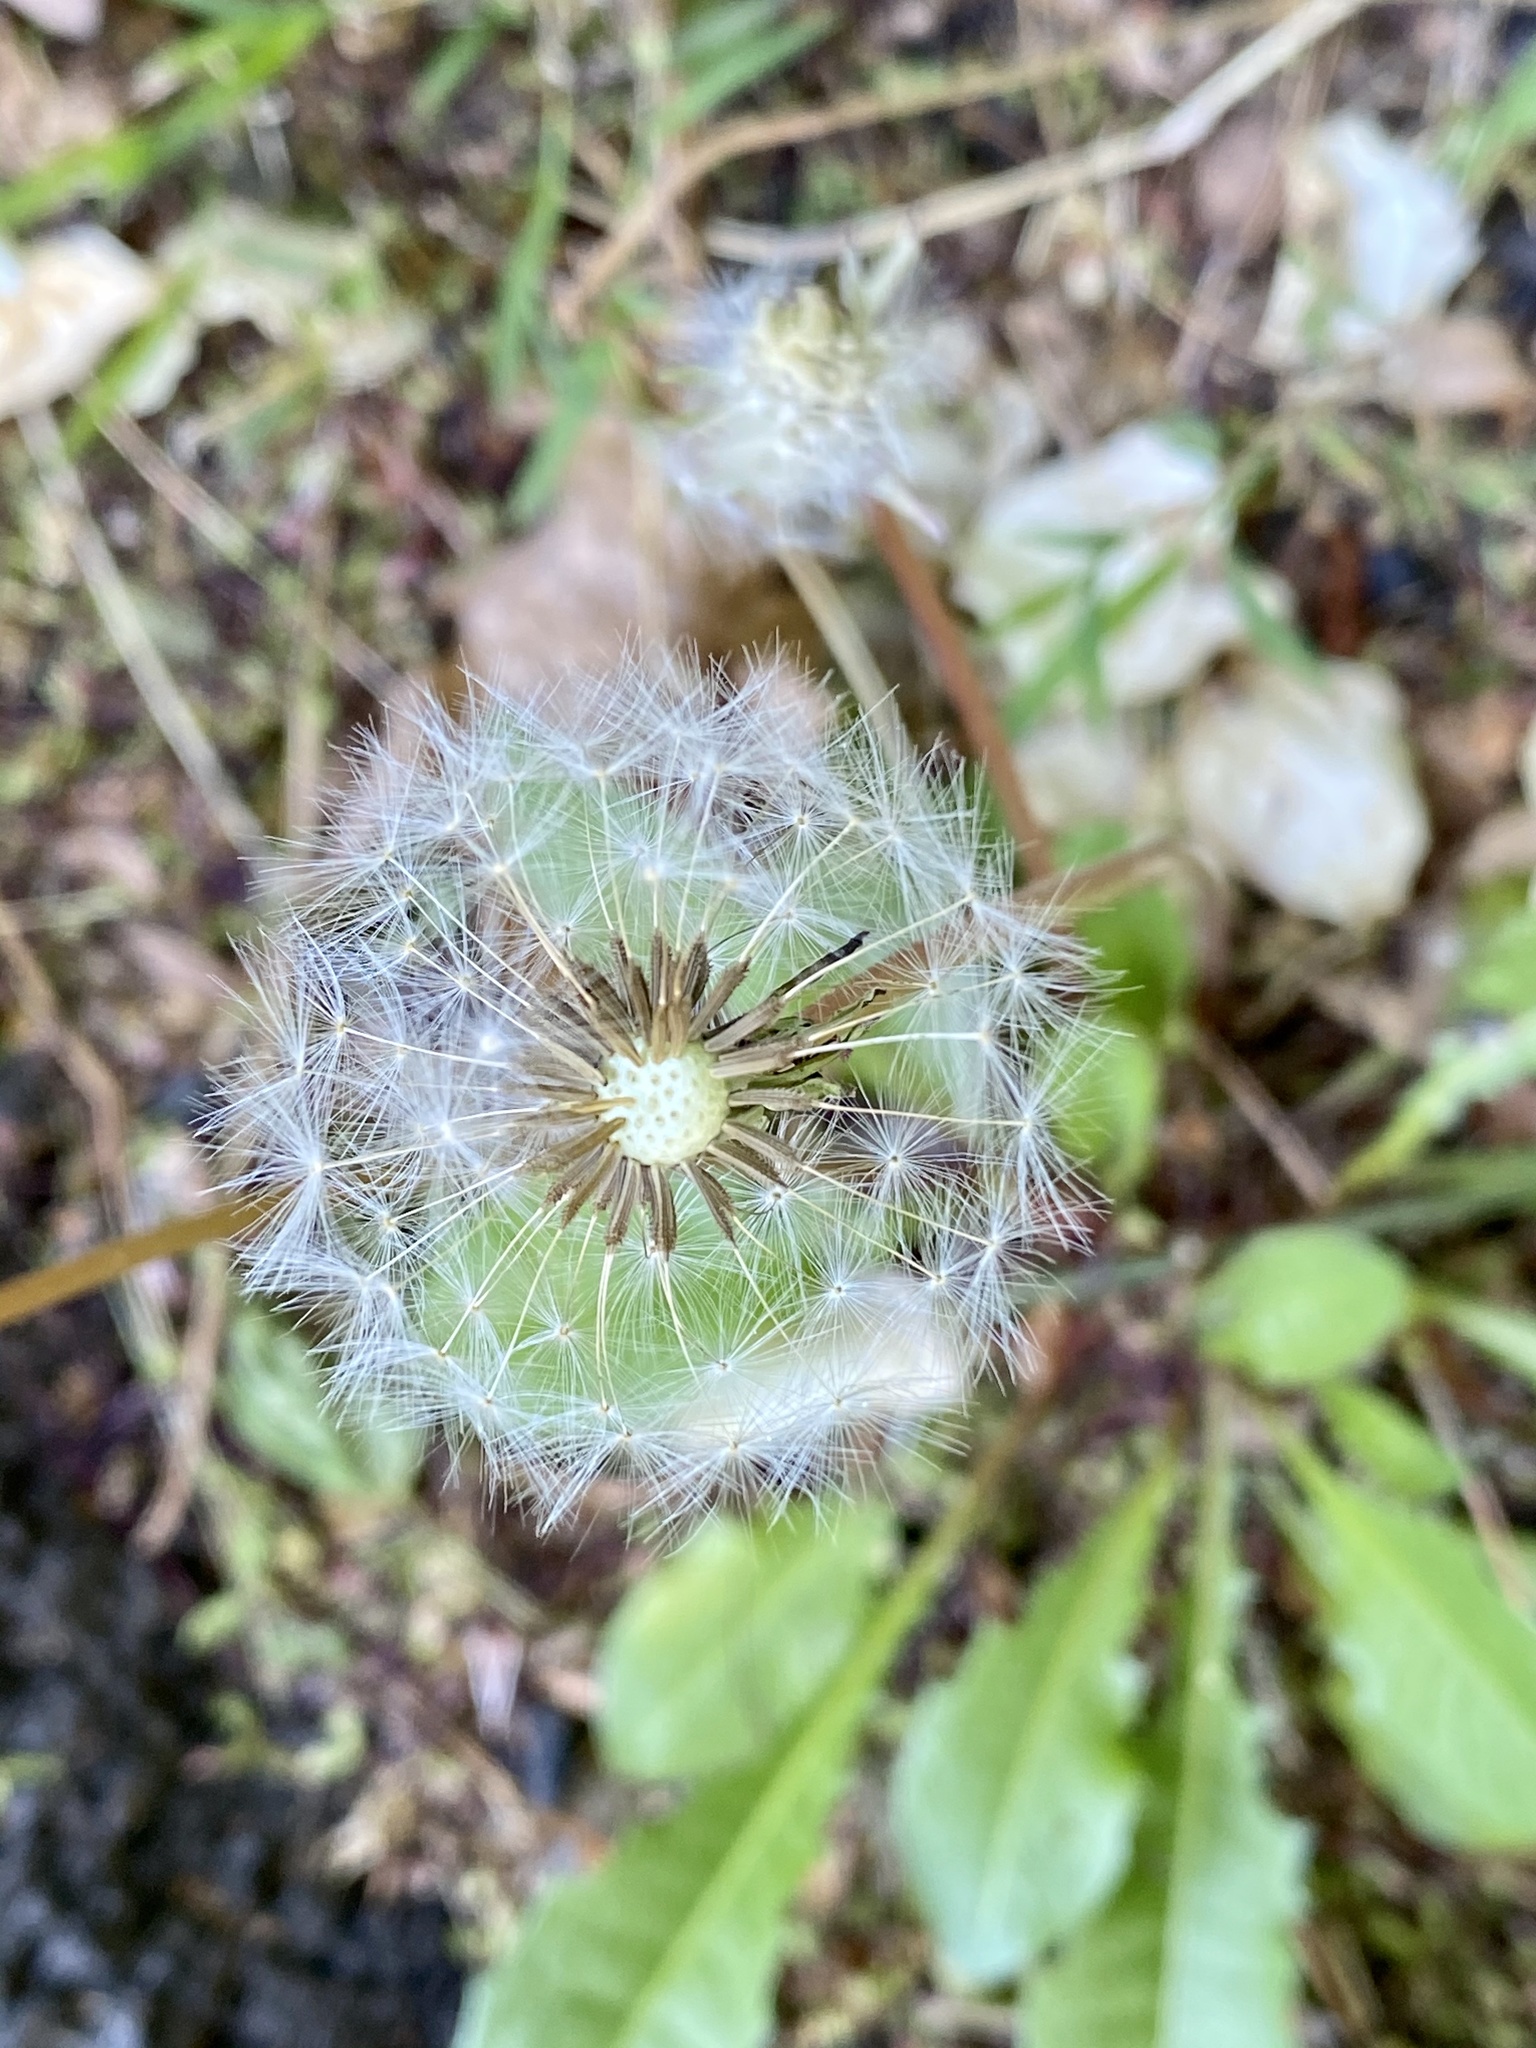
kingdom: Plantae
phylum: Tracheophyta
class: Magnoliopsida
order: Asterales
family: Asteraceae
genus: Taraxacum
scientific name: Taraxacum officinale
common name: Common dandelion
